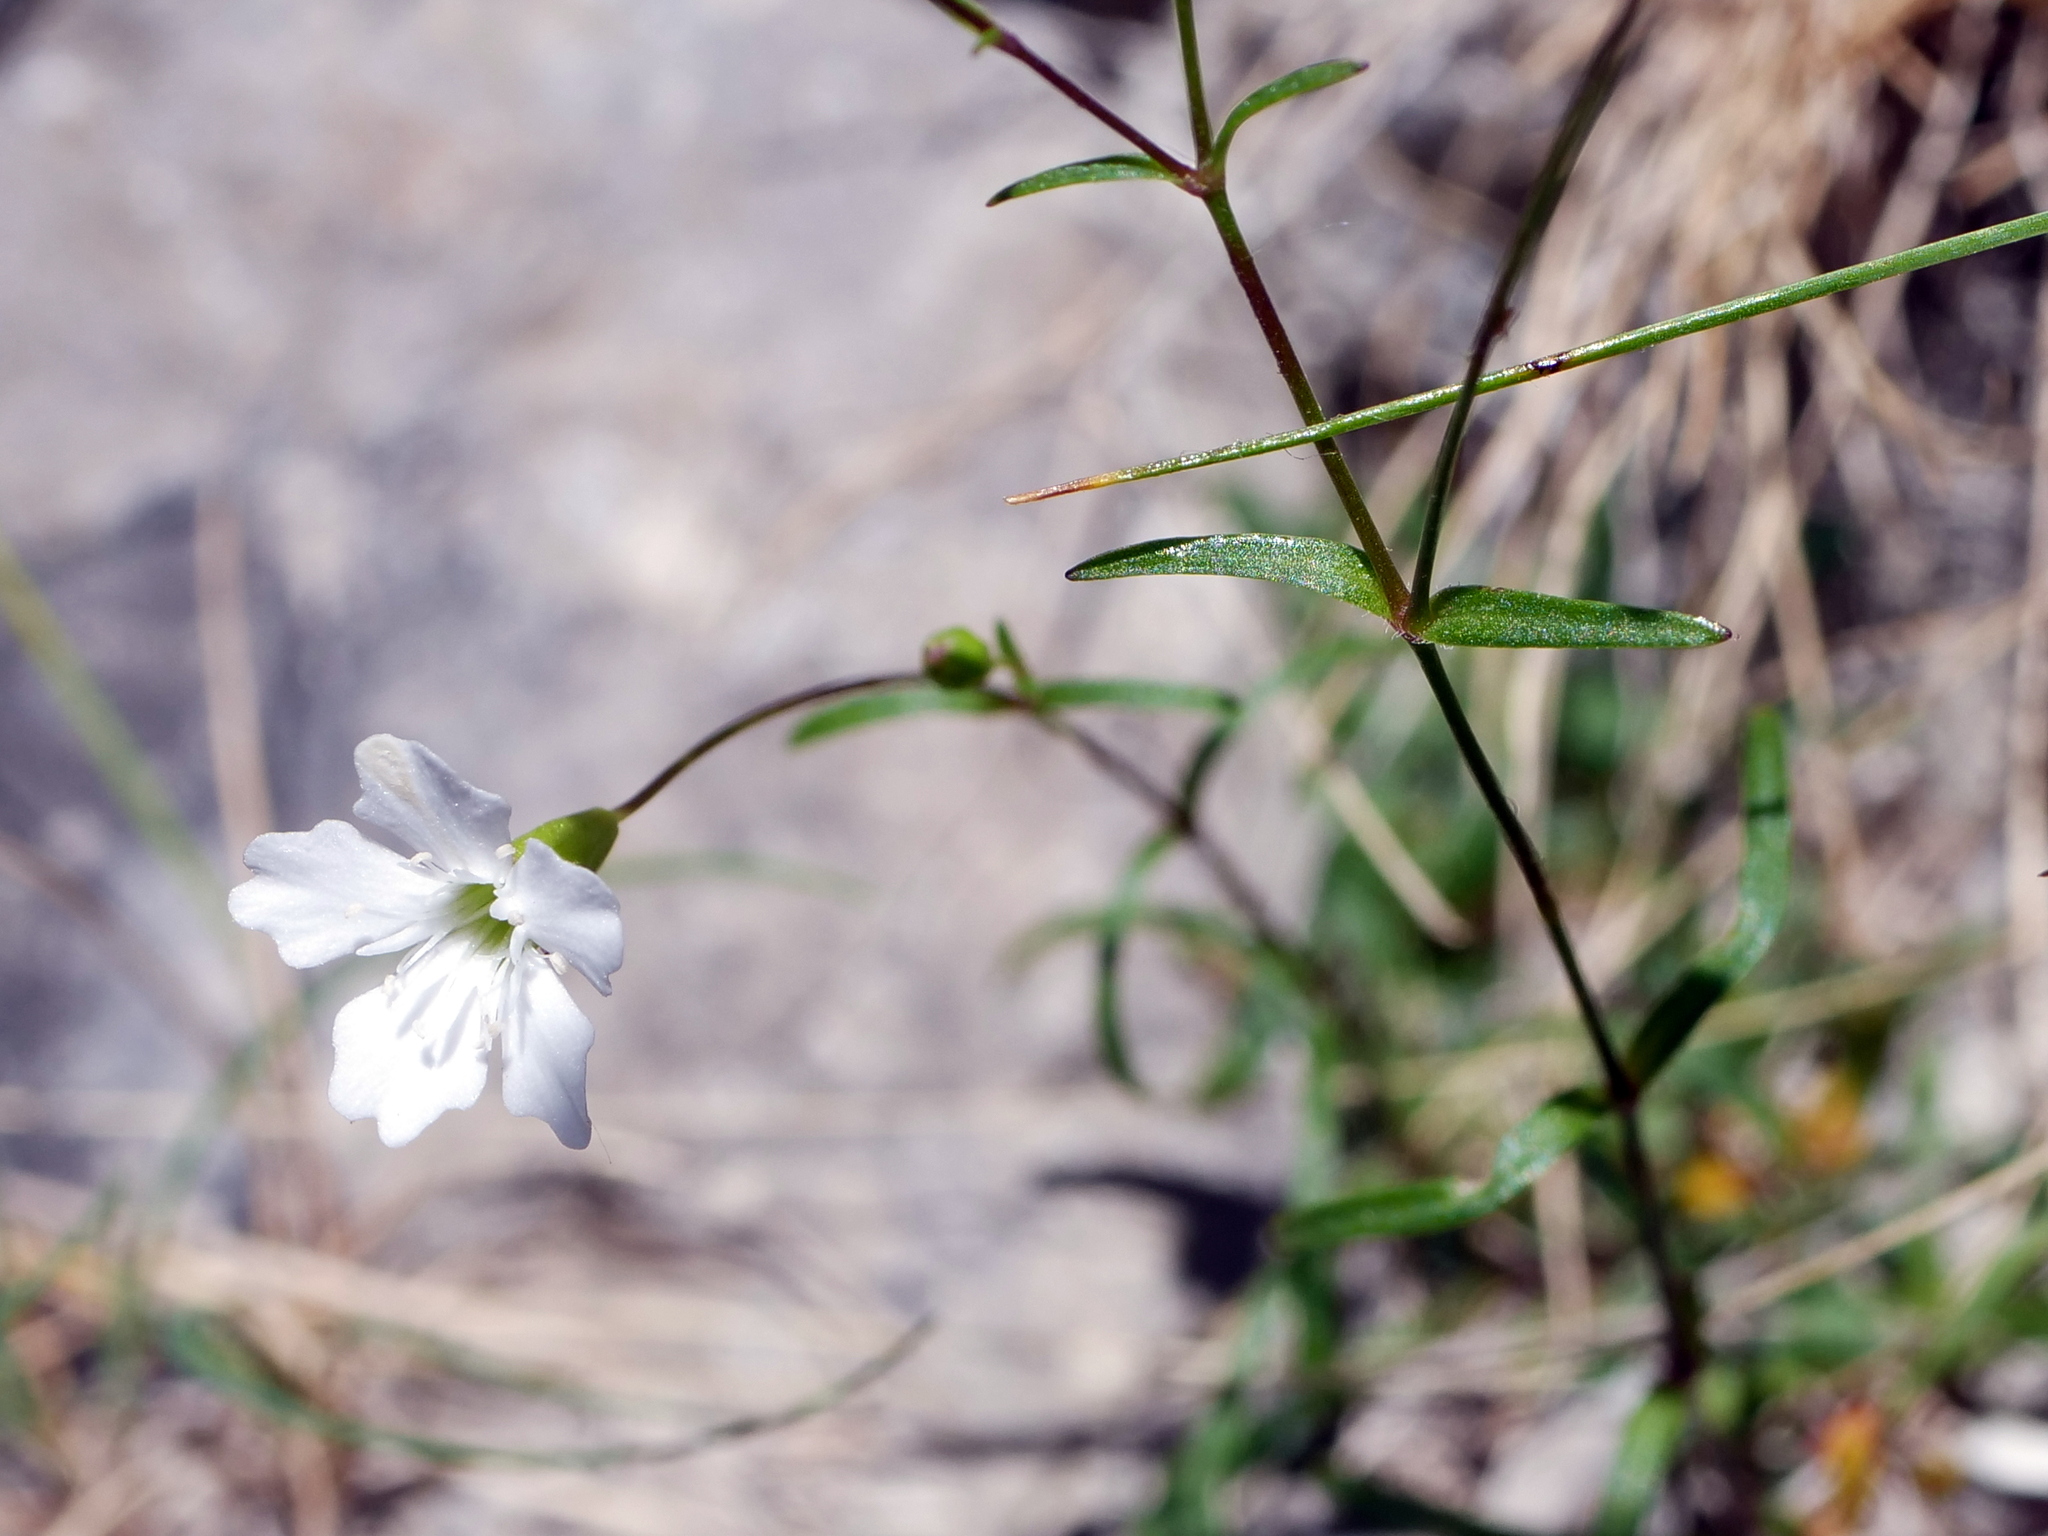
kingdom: Plantae
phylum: Tracheophyta
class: Magnoliopsida
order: Caryophyllales
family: Caryophyllaceae
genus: Heliosperma
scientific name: Heliosperma pusillum
